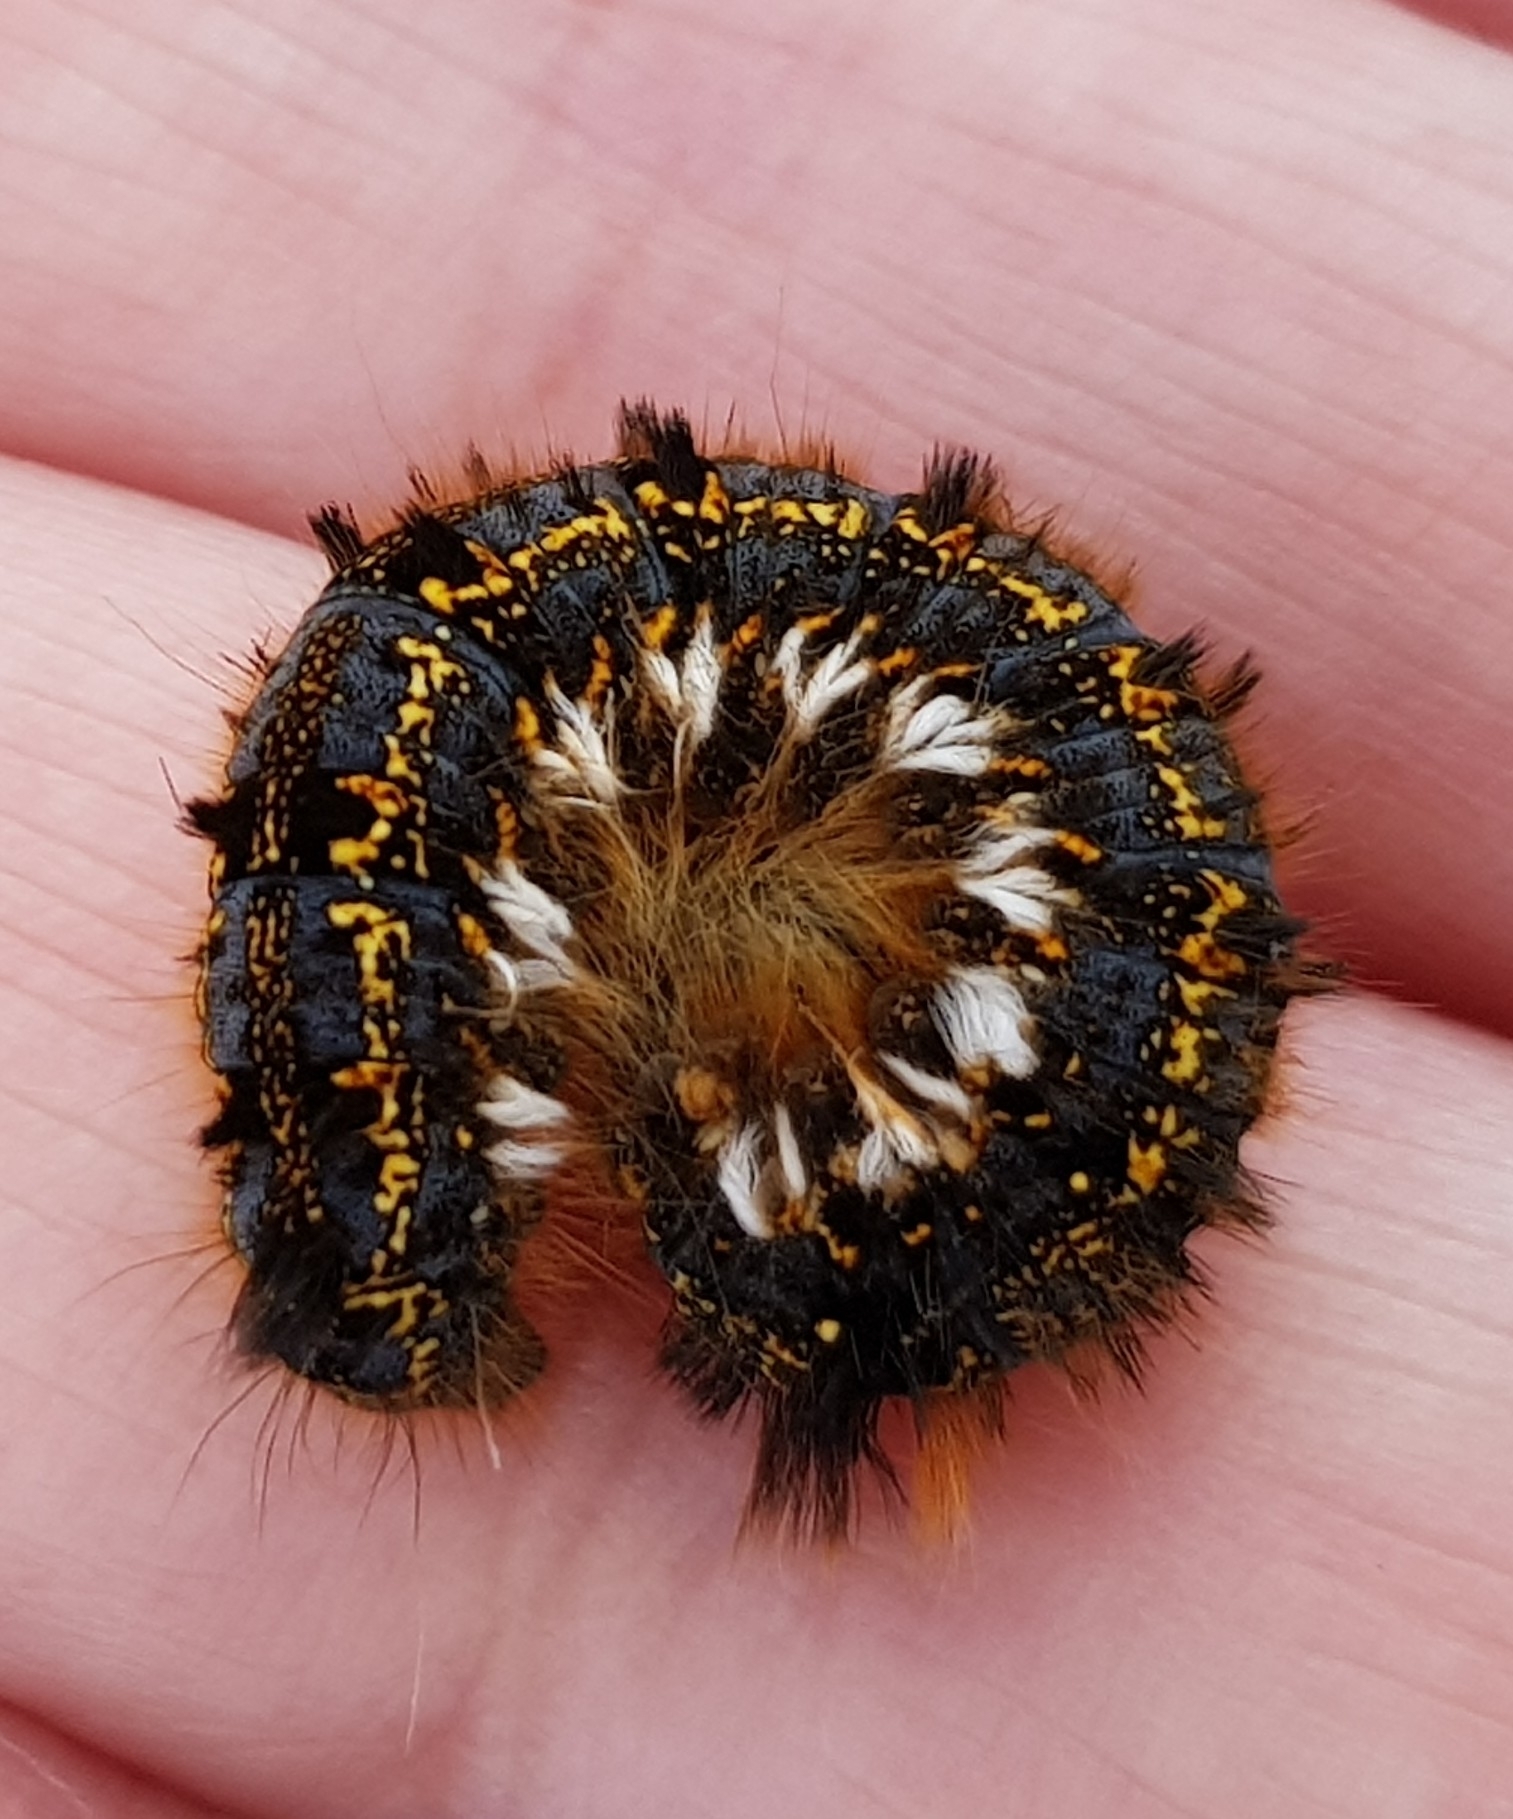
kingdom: Animalia
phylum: Arthropoda
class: Insecta
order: Lepidoptera
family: Lasiocampidae
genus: Euthrix
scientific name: Euthrix potatoria
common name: Drinker
